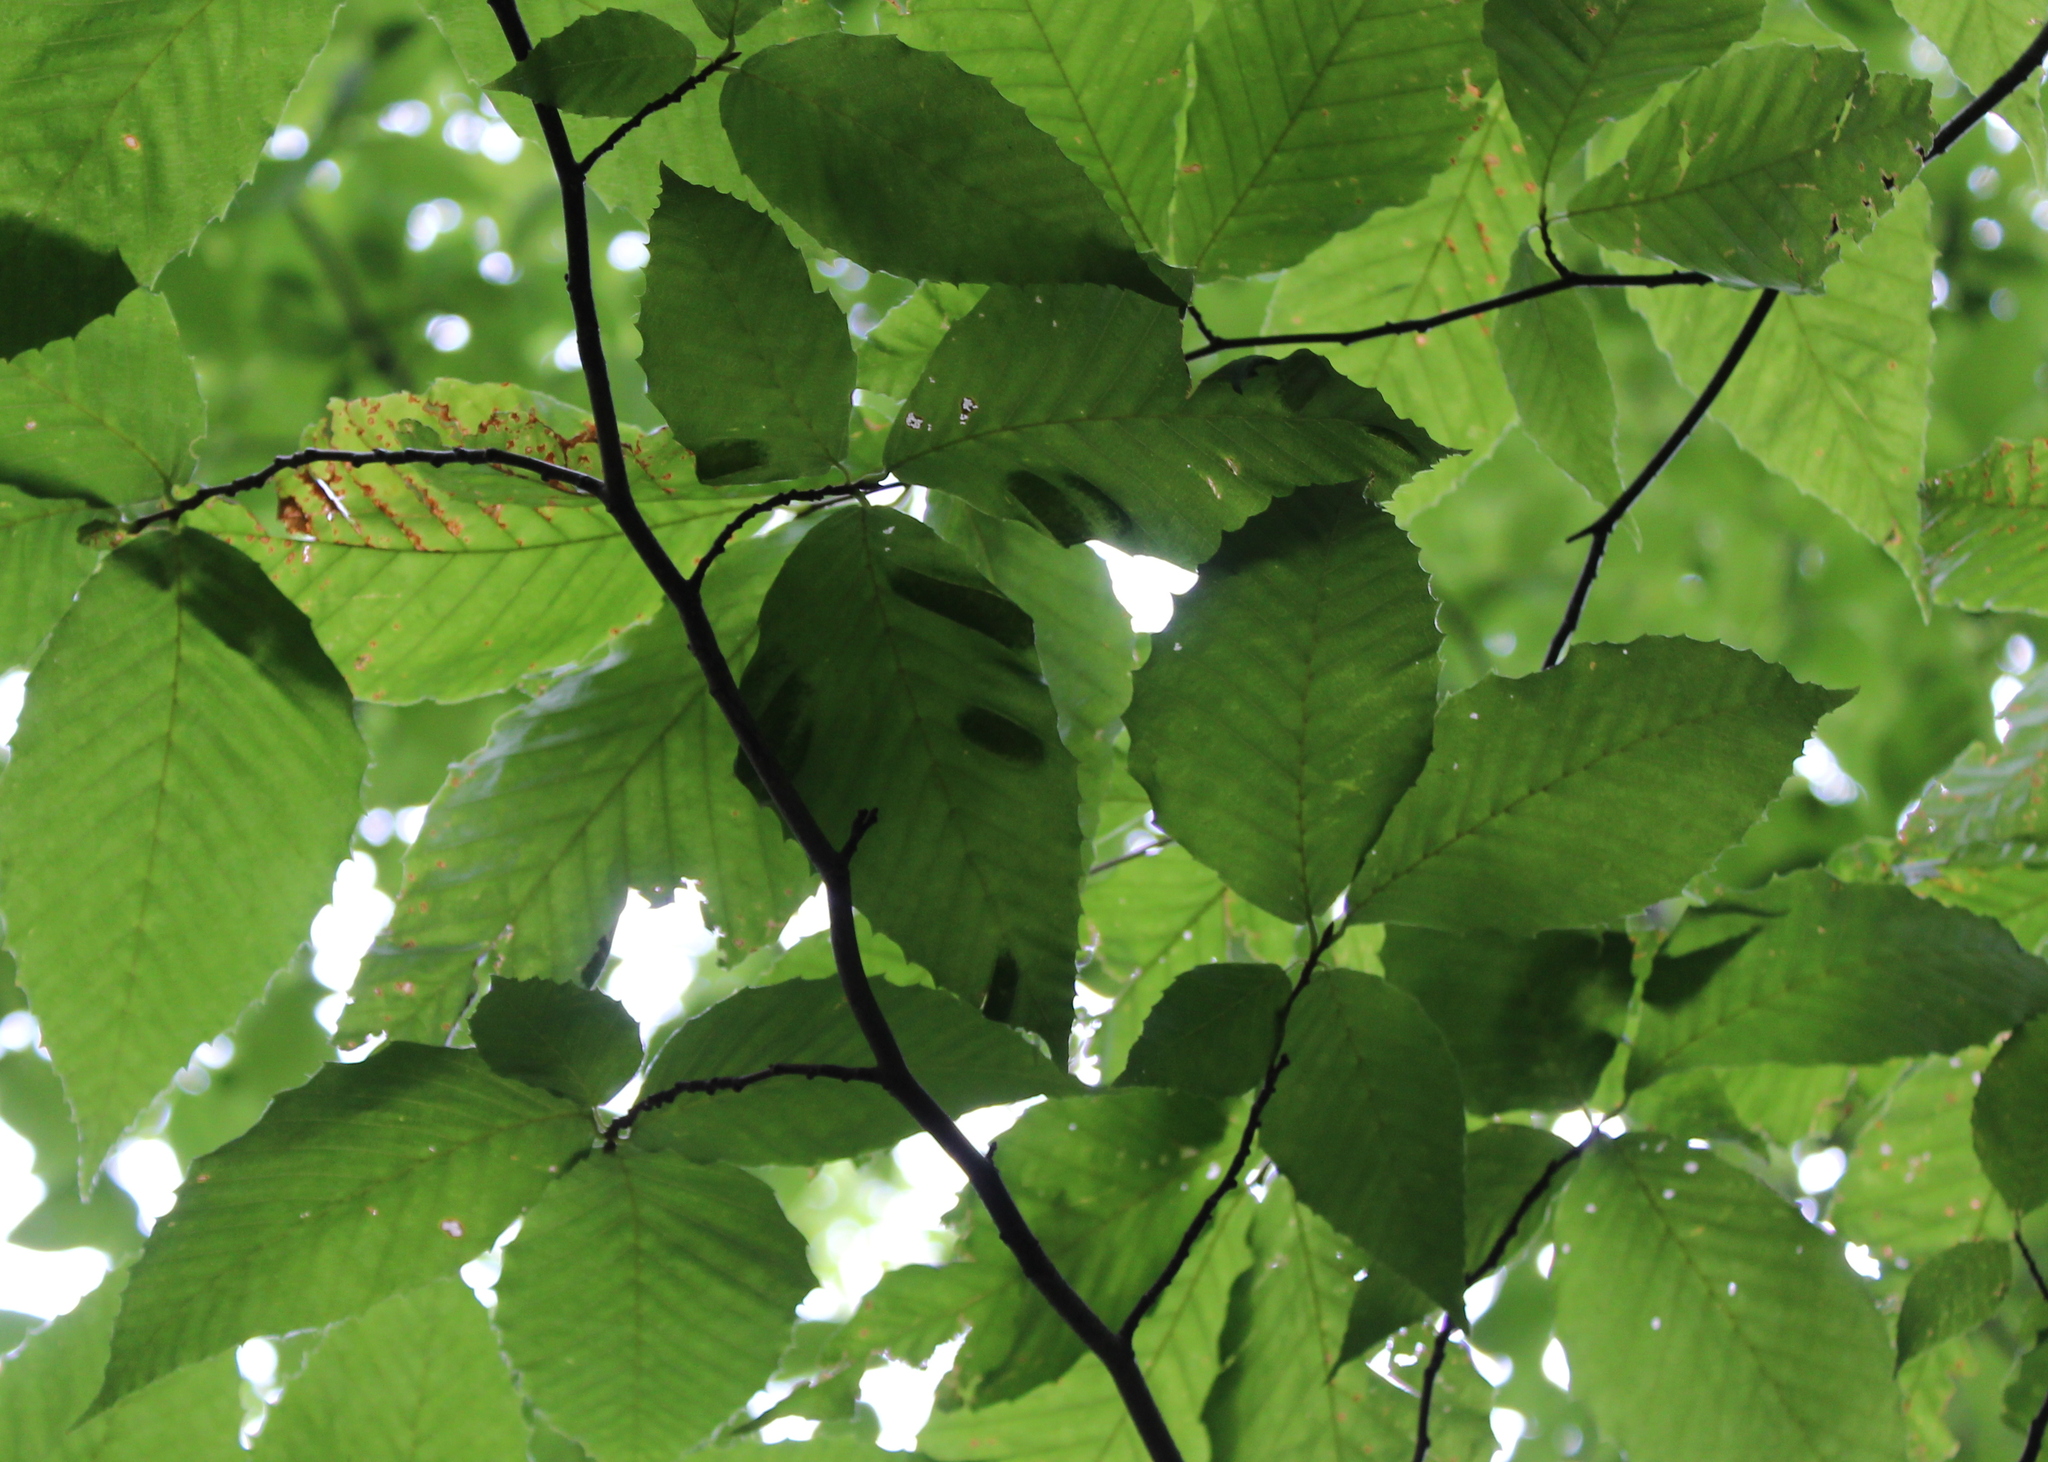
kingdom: Plantae
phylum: Tracheophyta
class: Magnoliopsida
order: Fagales
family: Fagaceae
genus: Fagus
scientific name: Fagus grandifolia
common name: American beech
